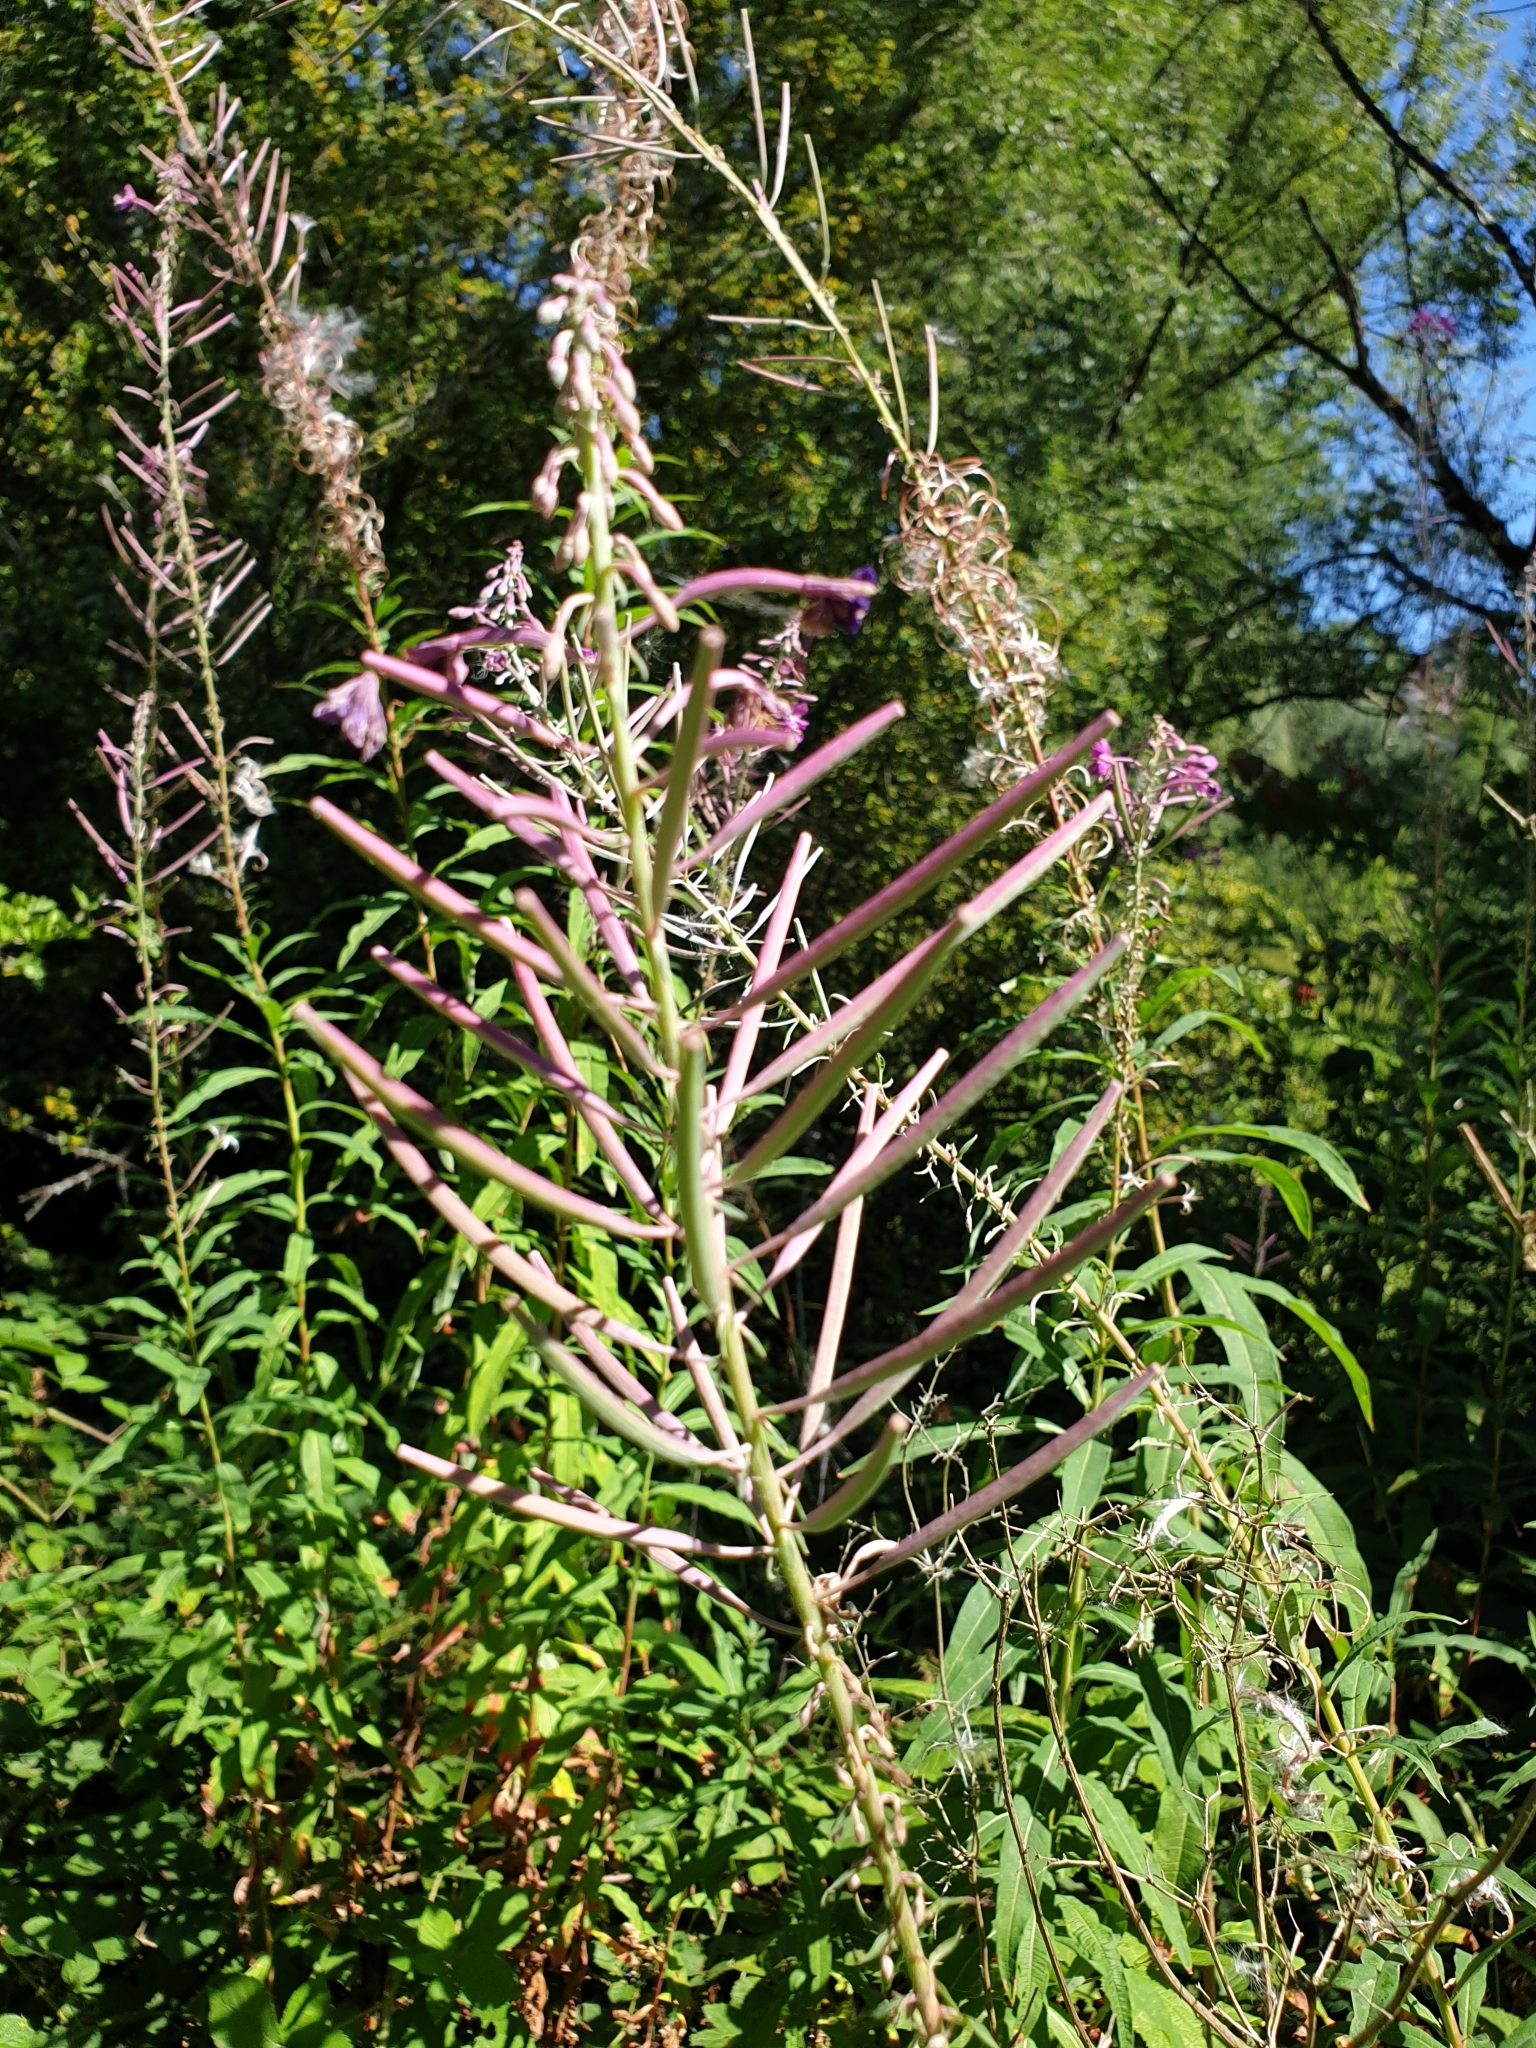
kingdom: Plantae
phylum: Tracheophyta
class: Magnoliopsida
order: Myrtales
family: Onagraceae
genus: Chamaenerion
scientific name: Chamaenerion angustifolium
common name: Fireweed
